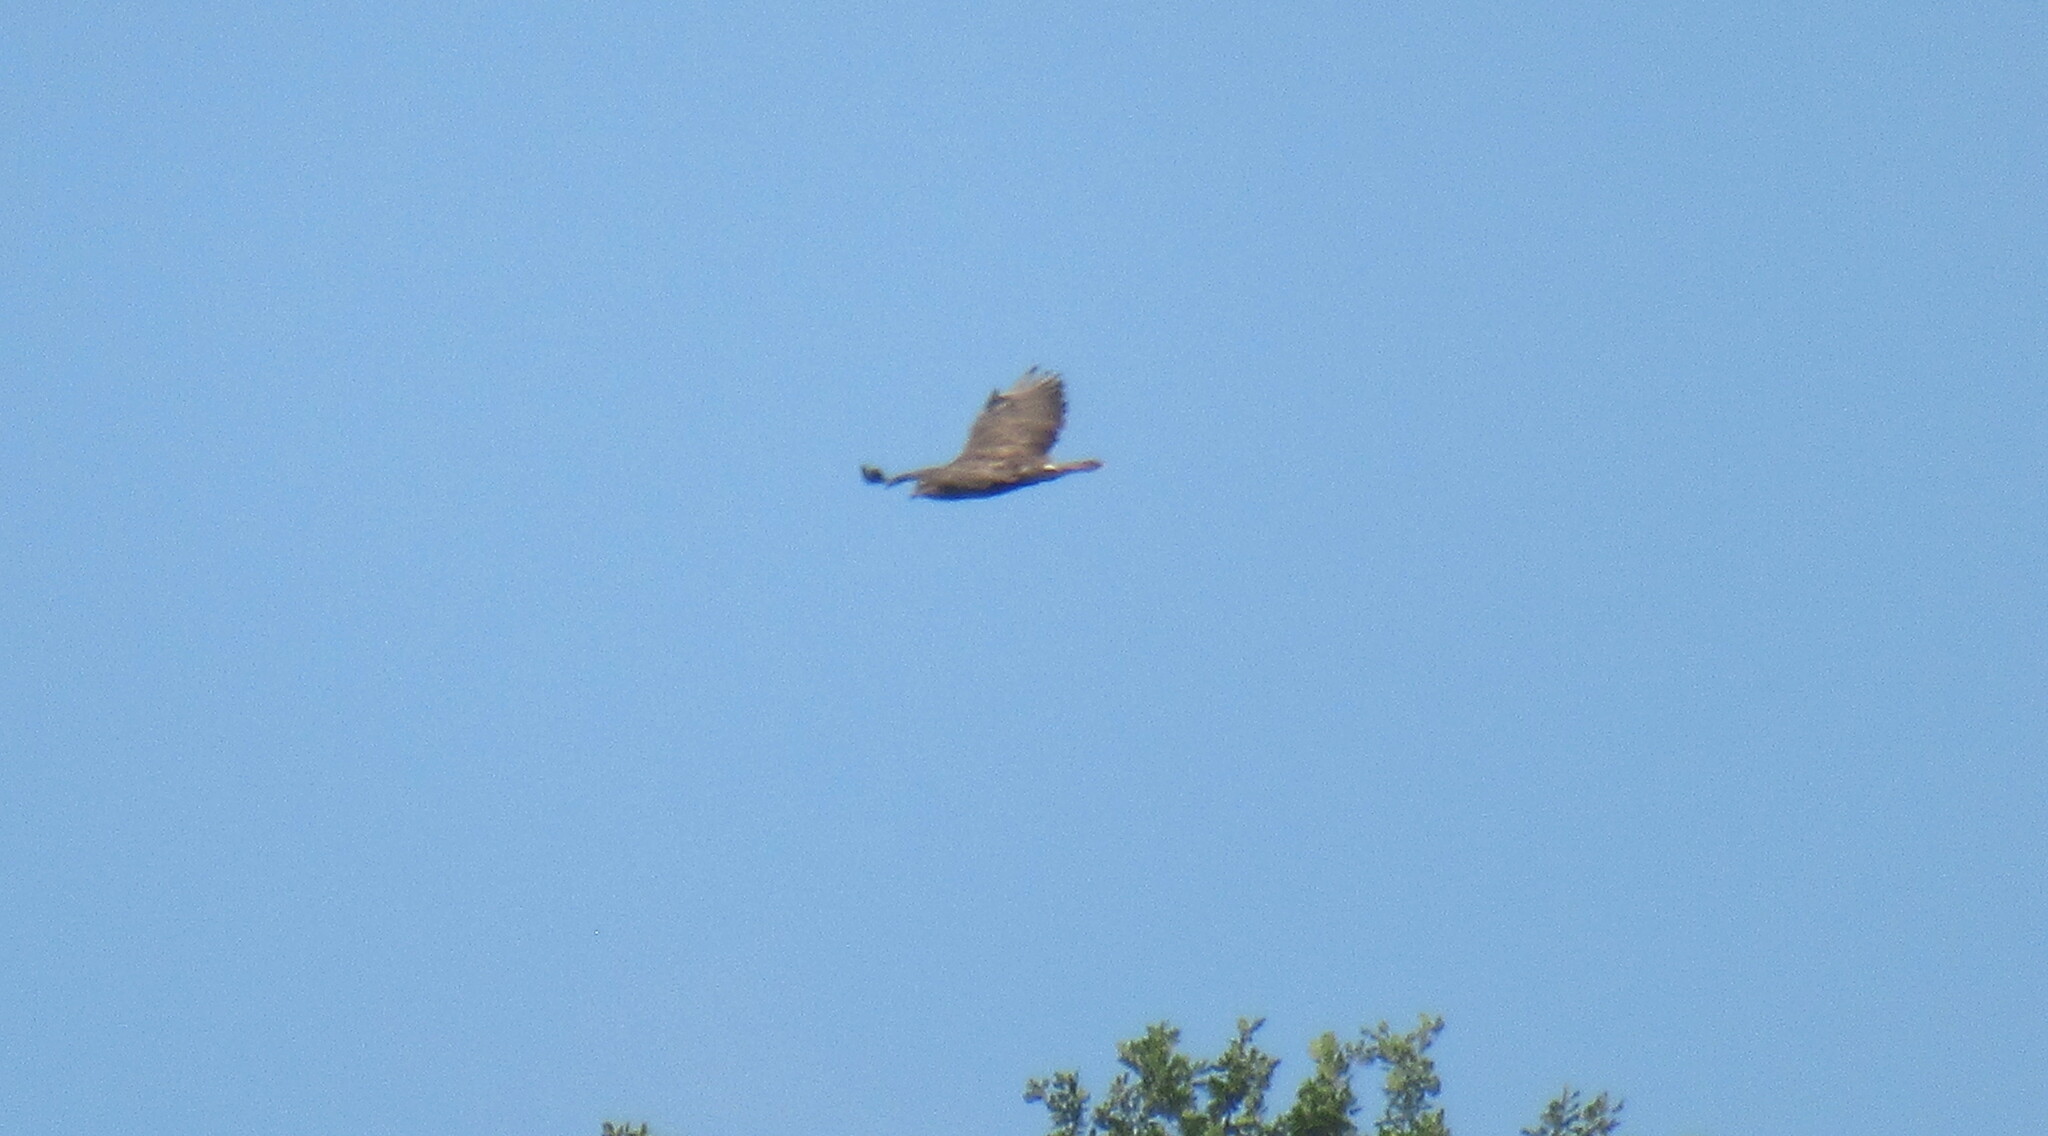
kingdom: Animalia
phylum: Chordata
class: Aves
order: Accipitriformes
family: Accipitridae
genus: Buteo
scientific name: Buteo buteo
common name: Common buzzard
